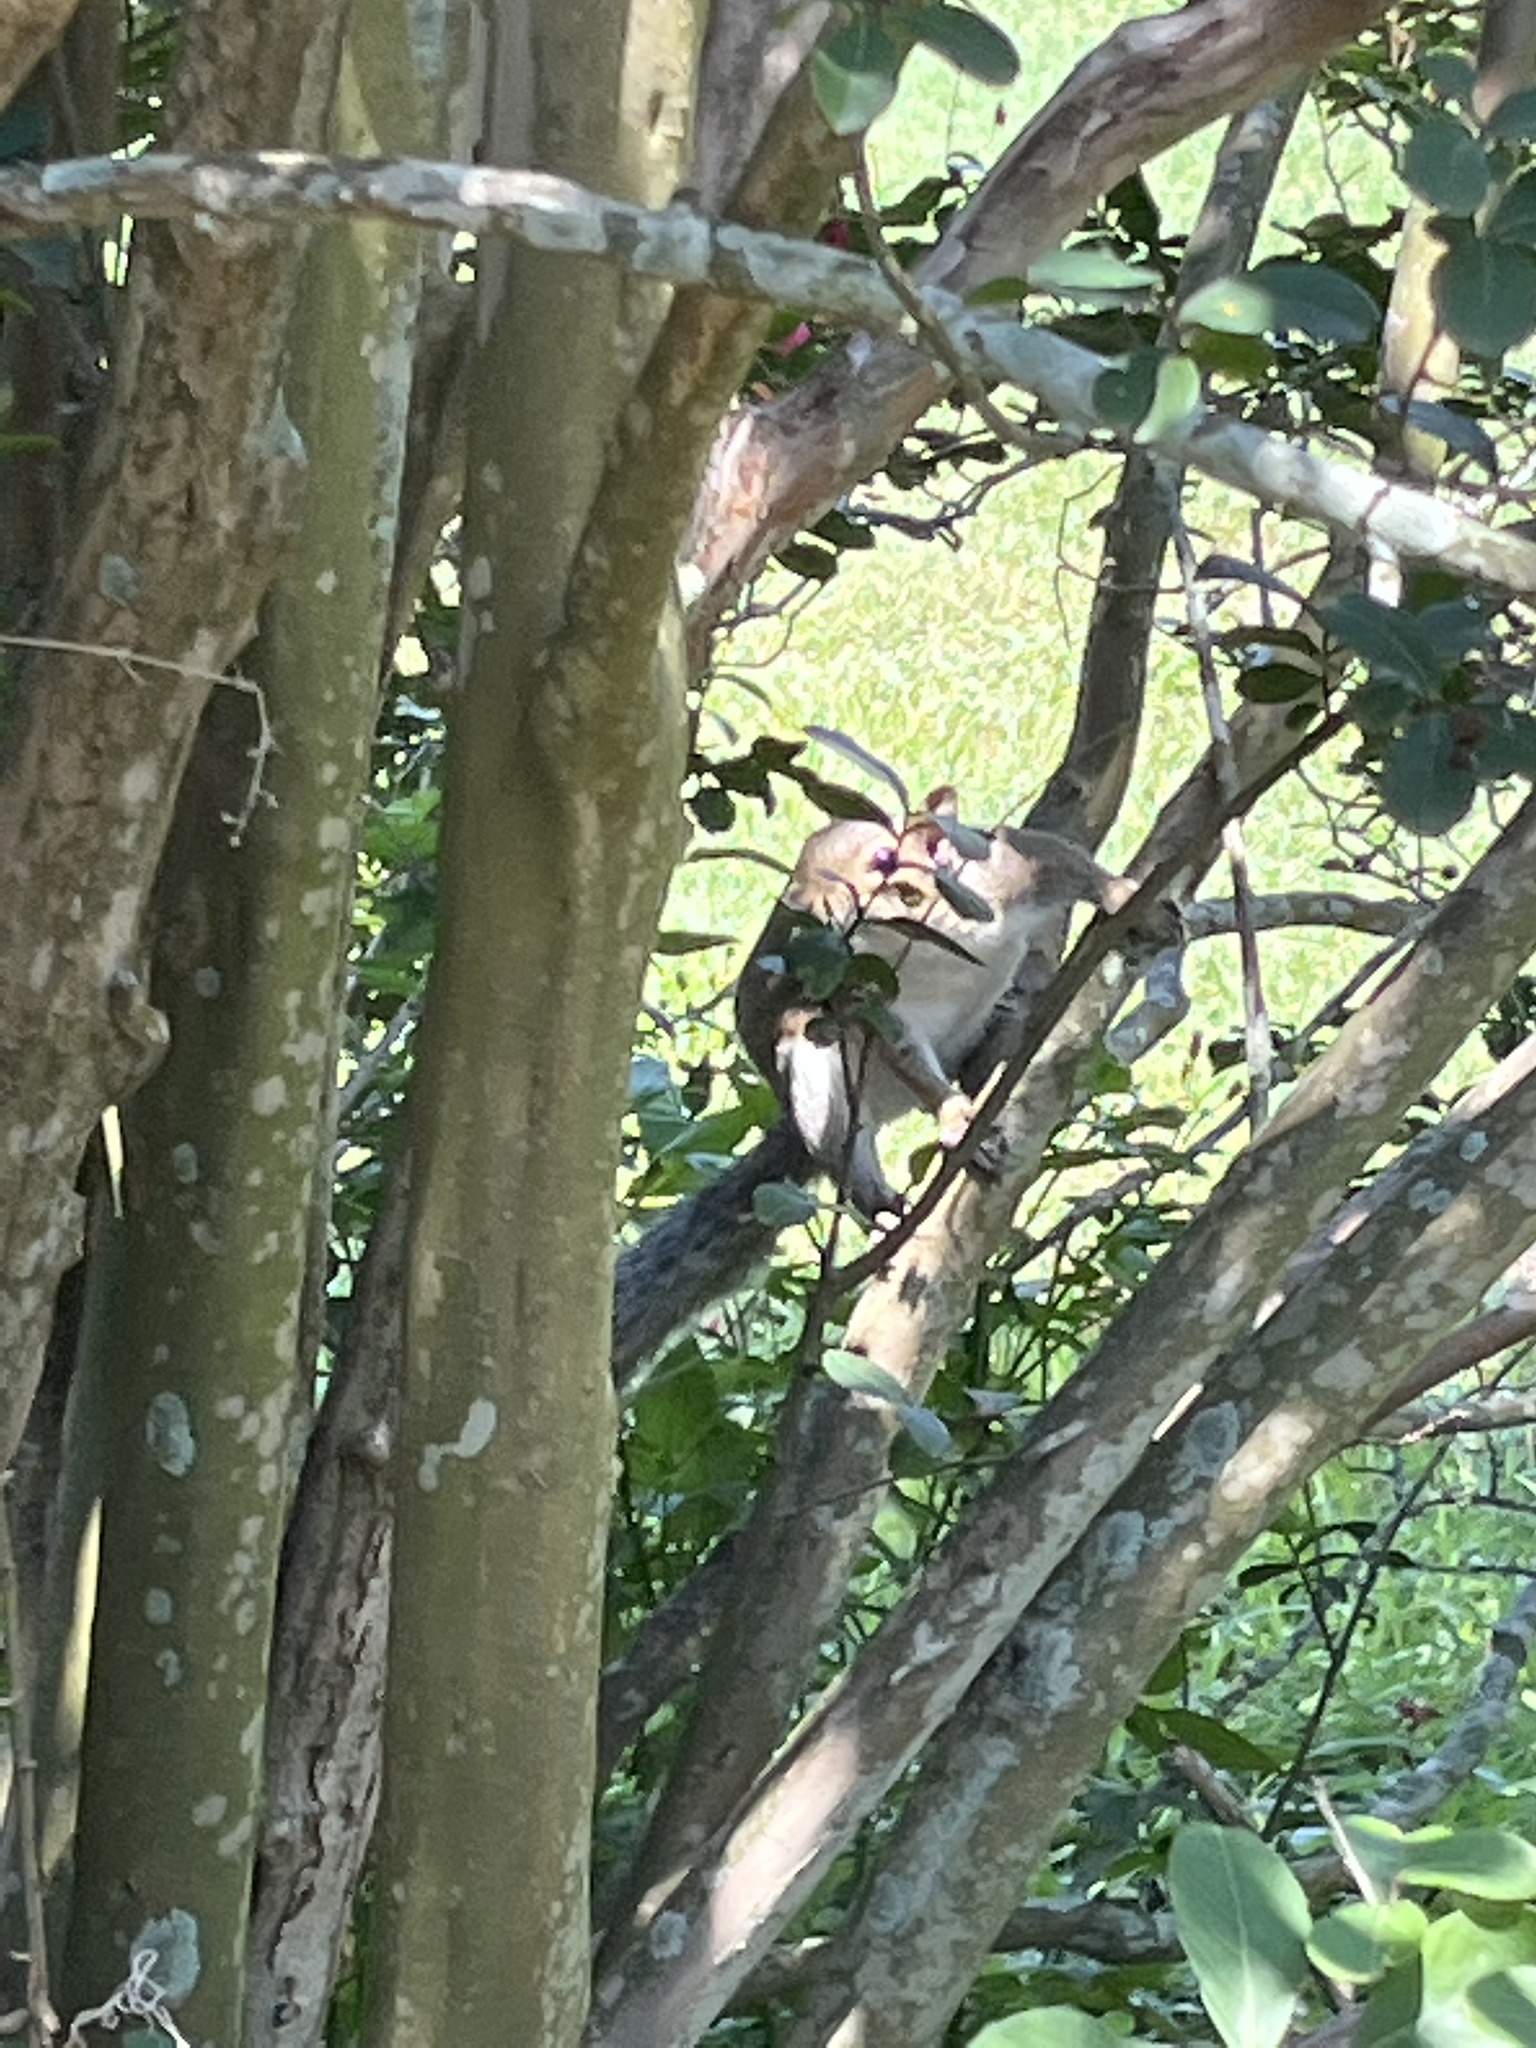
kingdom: Animalia
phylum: Chordata
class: Mammalia
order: Rodentia
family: Sciuridae
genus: Sciurus
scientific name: Sciurus carolinensis
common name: Eastern gray squirrel
